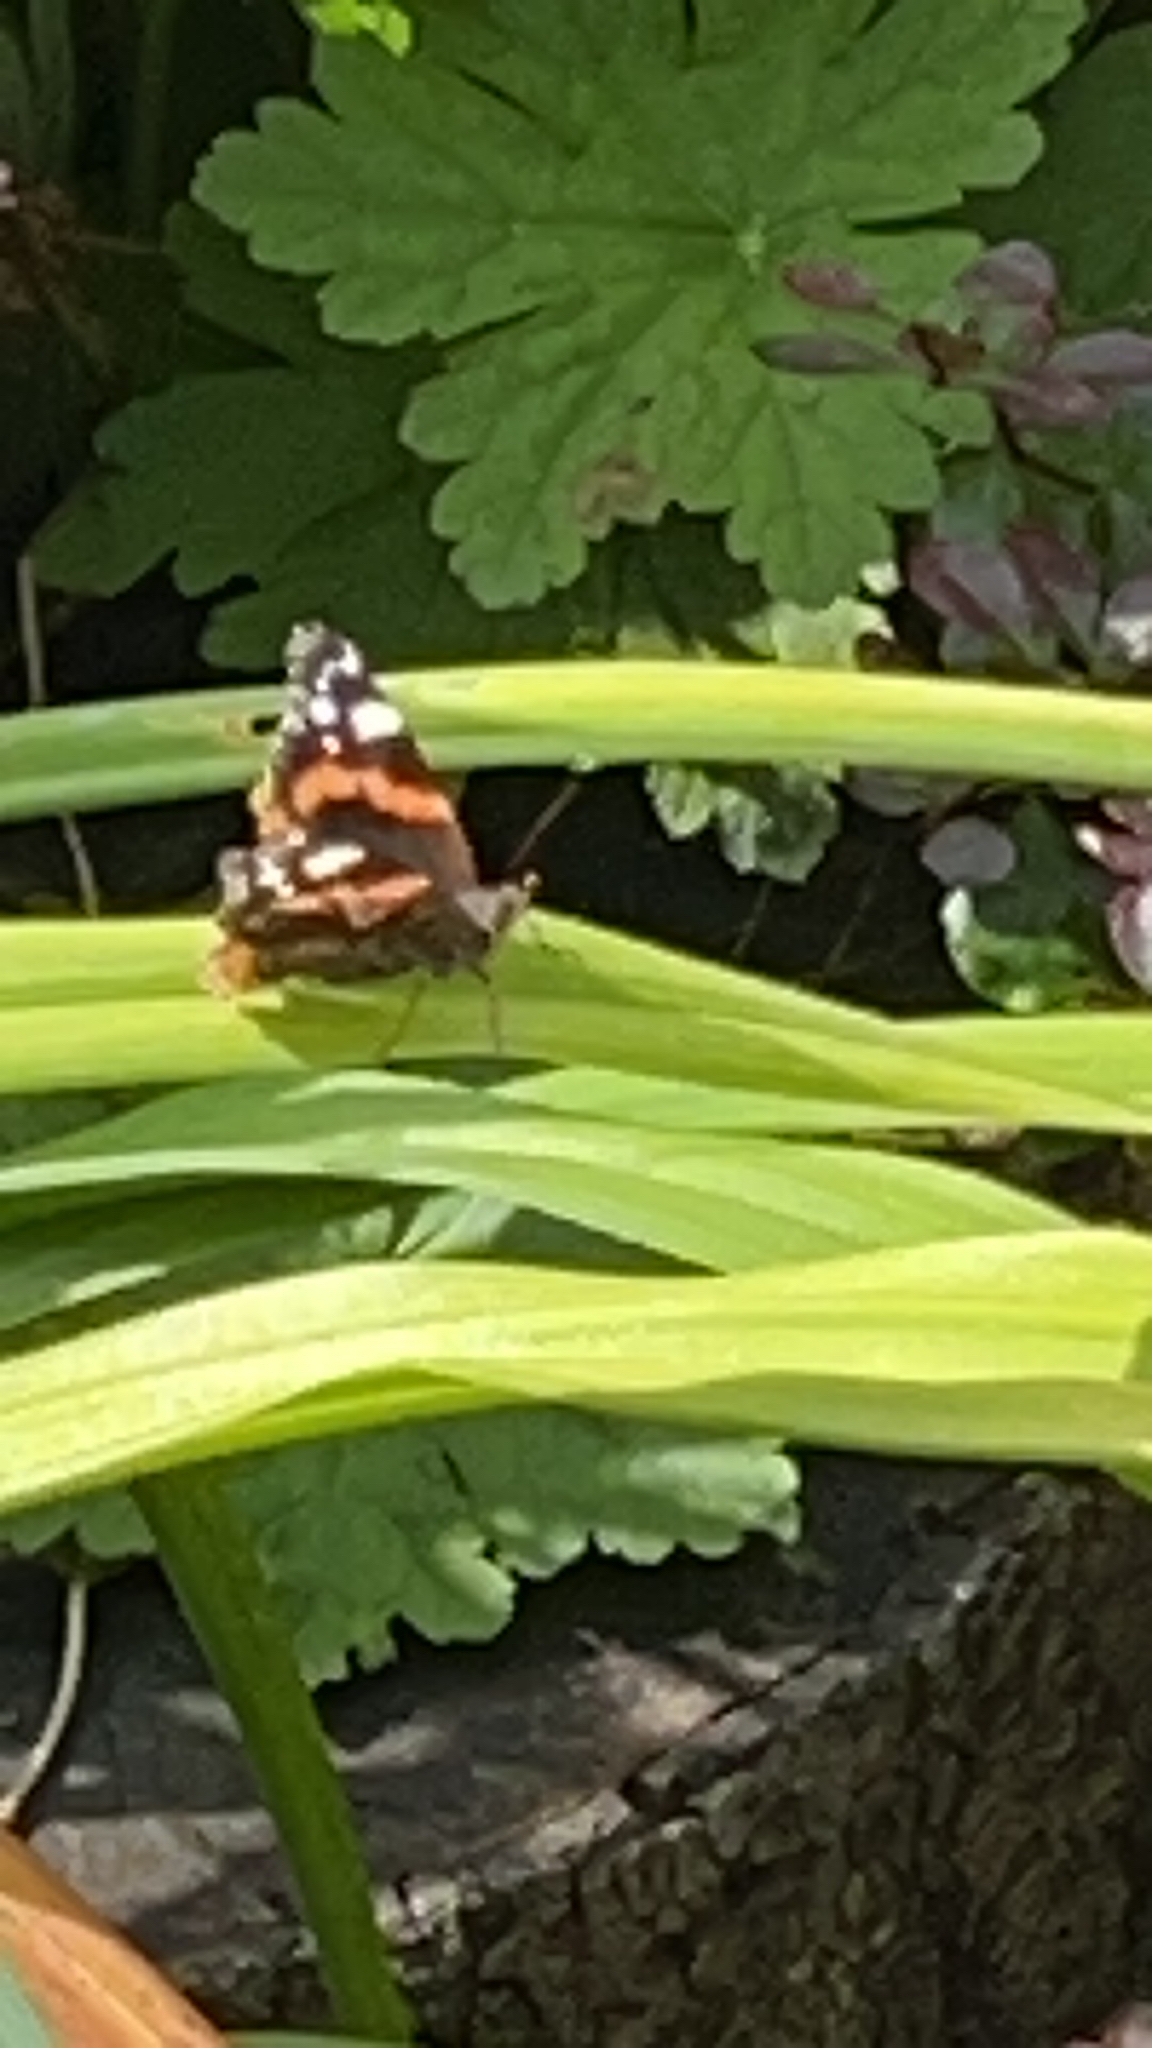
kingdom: Animalia
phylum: Arthropoda
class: Insecta
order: Lepidoptera
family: Nymphalidae
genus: Vanessa
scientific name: Vanessa atalanta
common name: Red admiral
